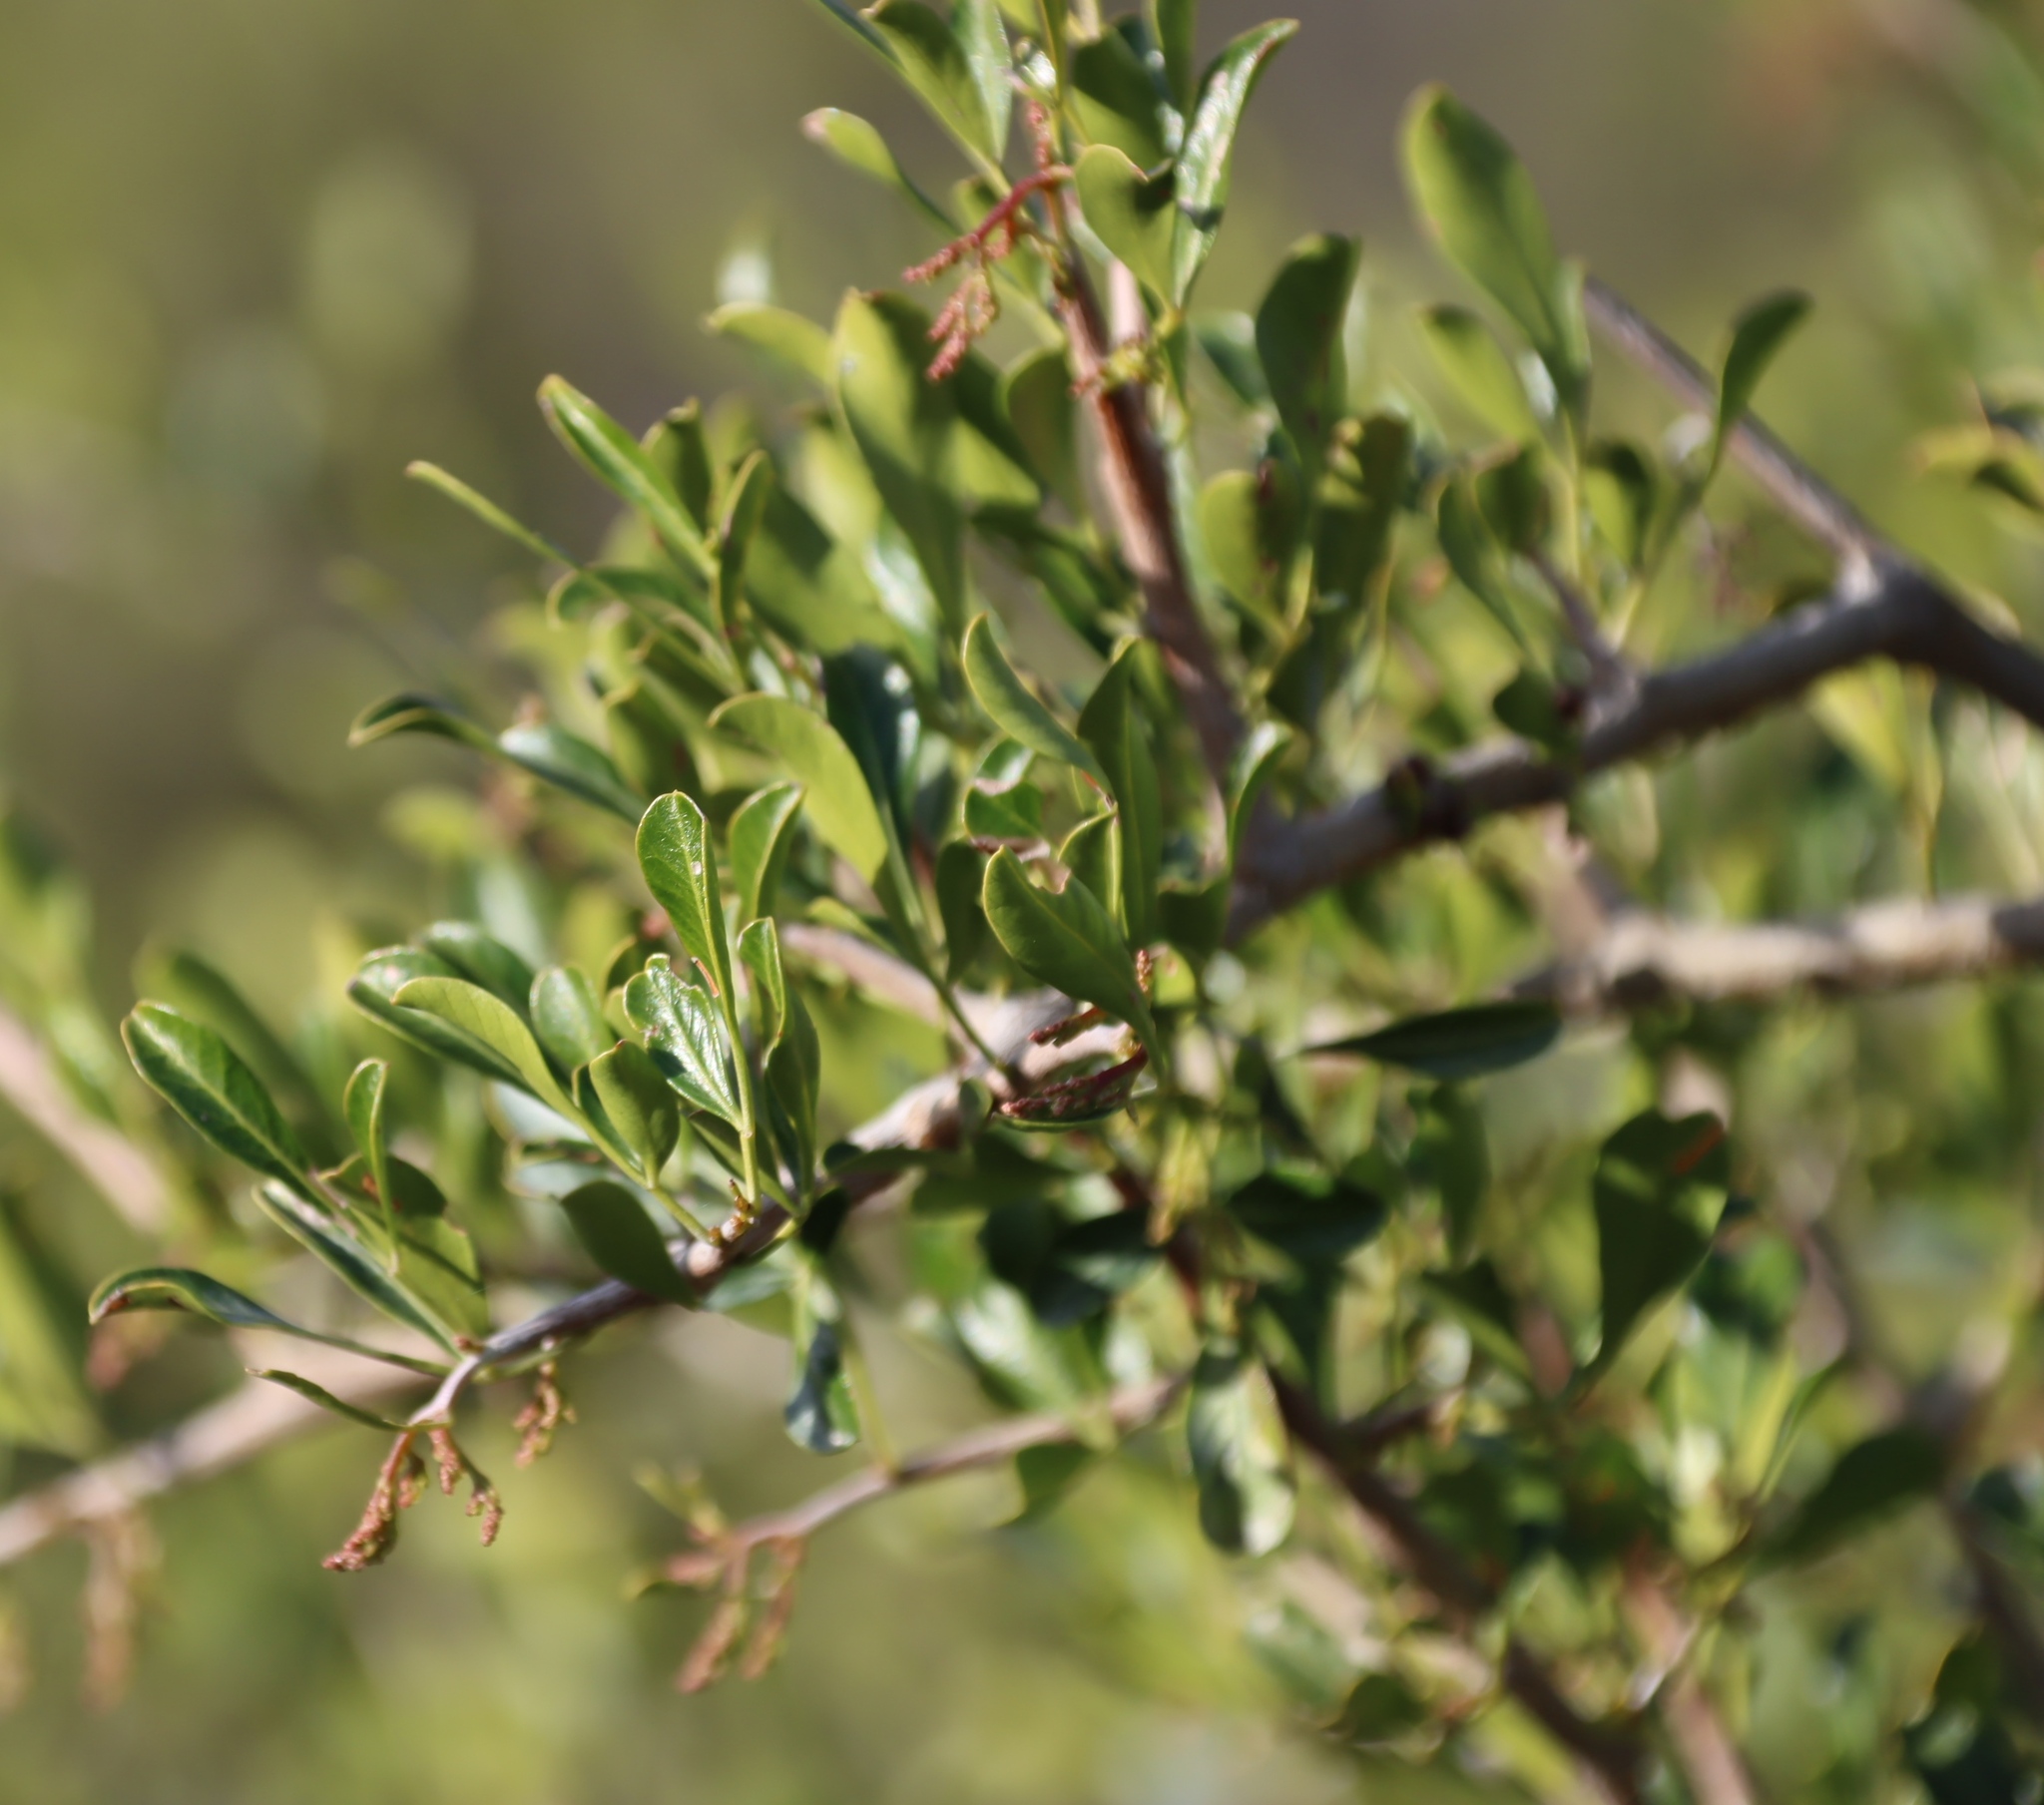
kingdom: Plantae
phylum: Tracheophyta
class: Magnoliopsida
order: Sapindales
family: Anacardiaceae
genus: Searsia
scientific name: Searsia longispina
